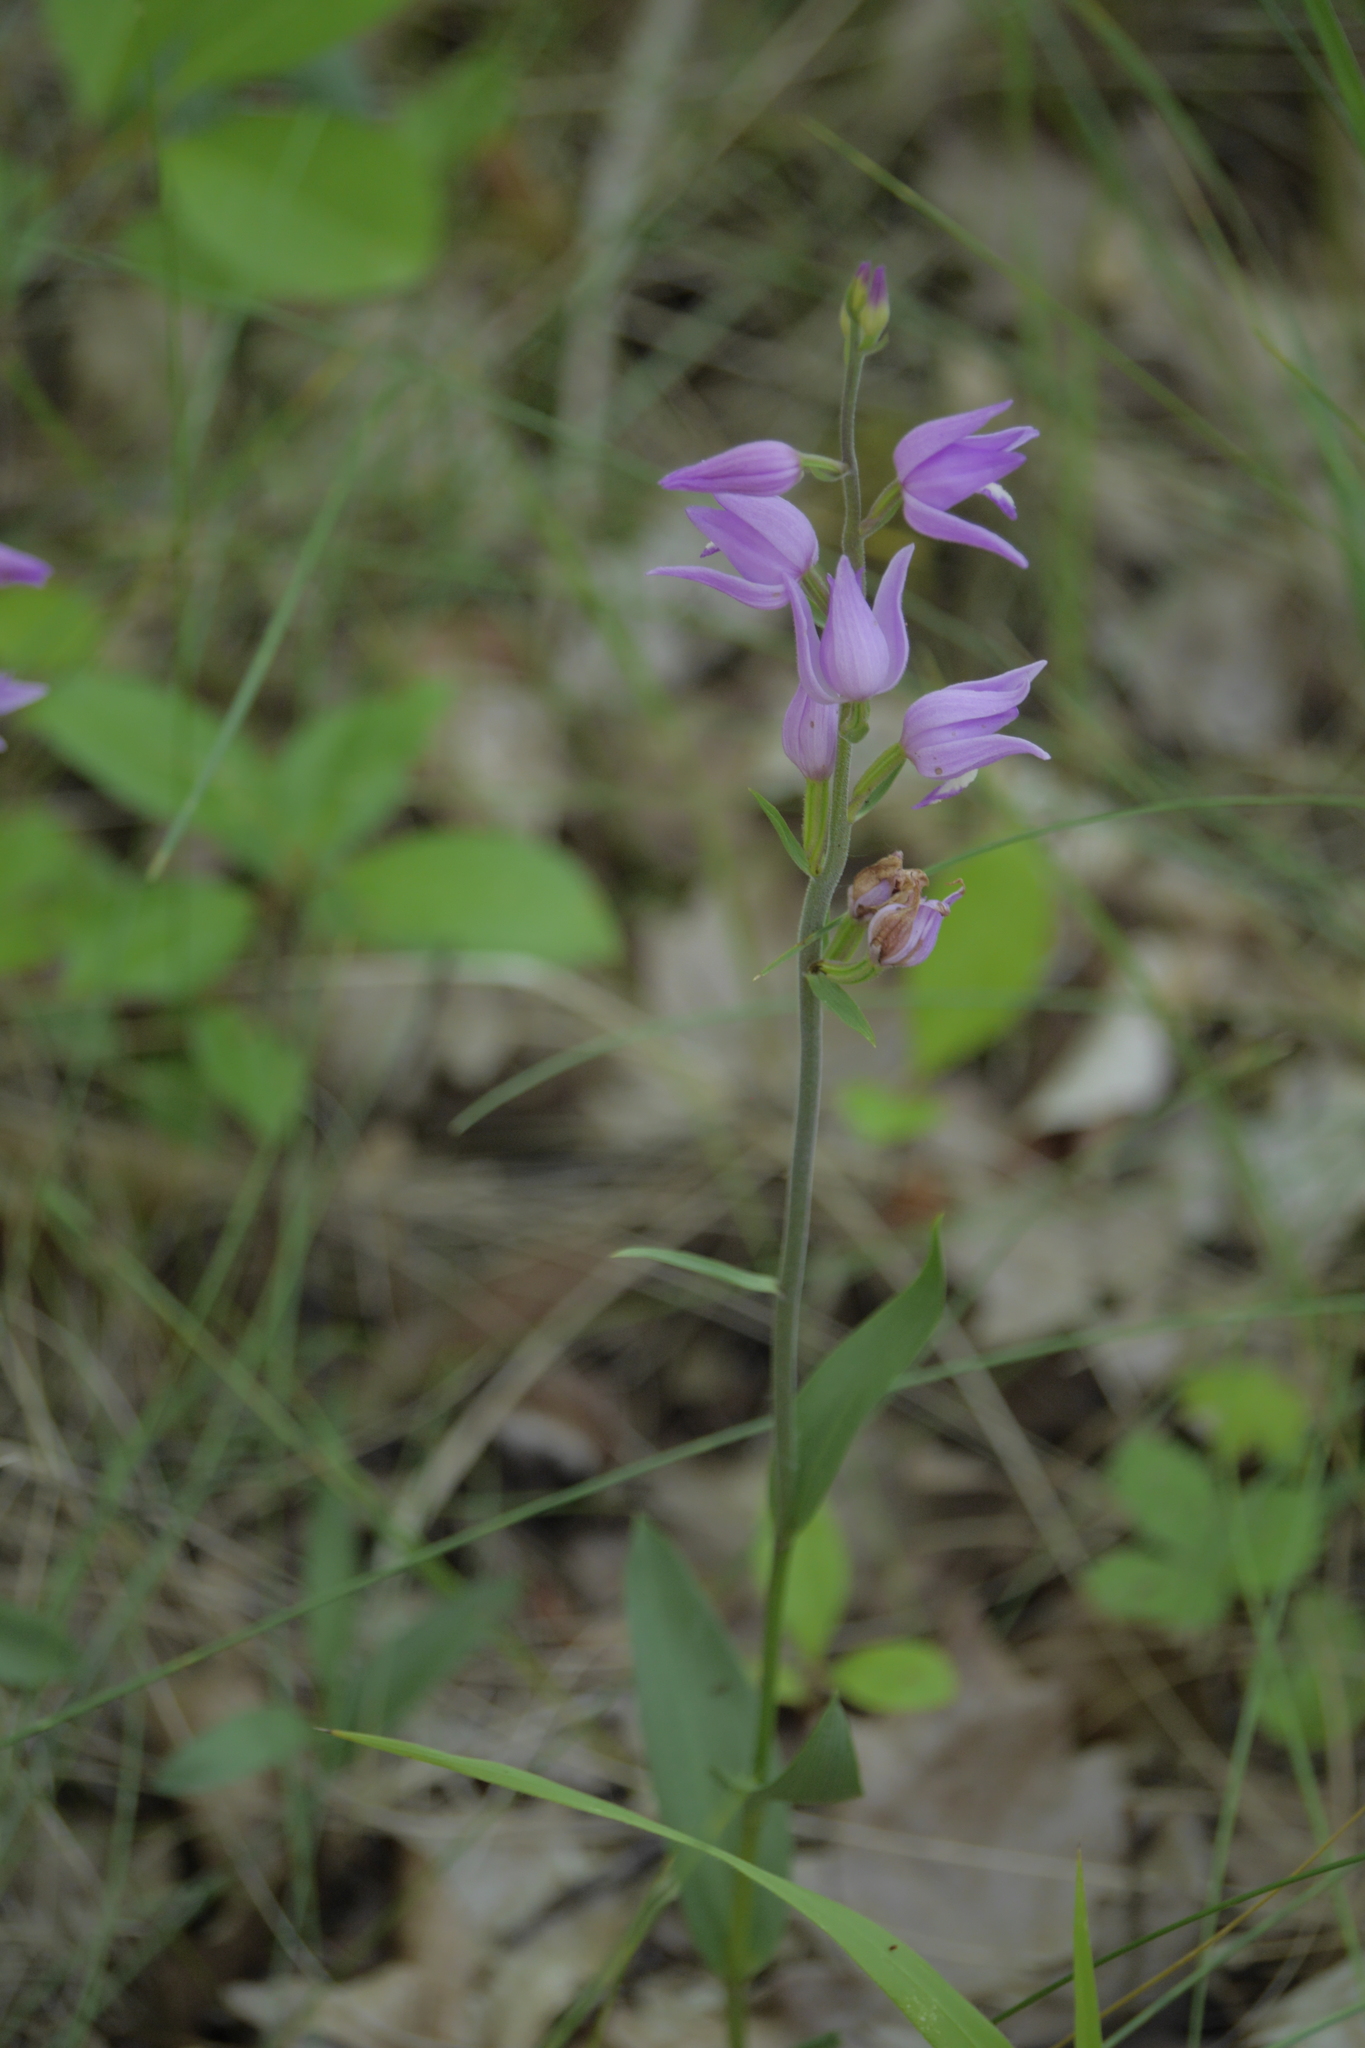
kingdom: Plantae
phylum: Tracheophyta
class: Liliopsida
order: Asparagales
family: Orchidaceae
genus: Cephalanthera
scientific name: Cephalanthera rubra
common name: Red helleborine
